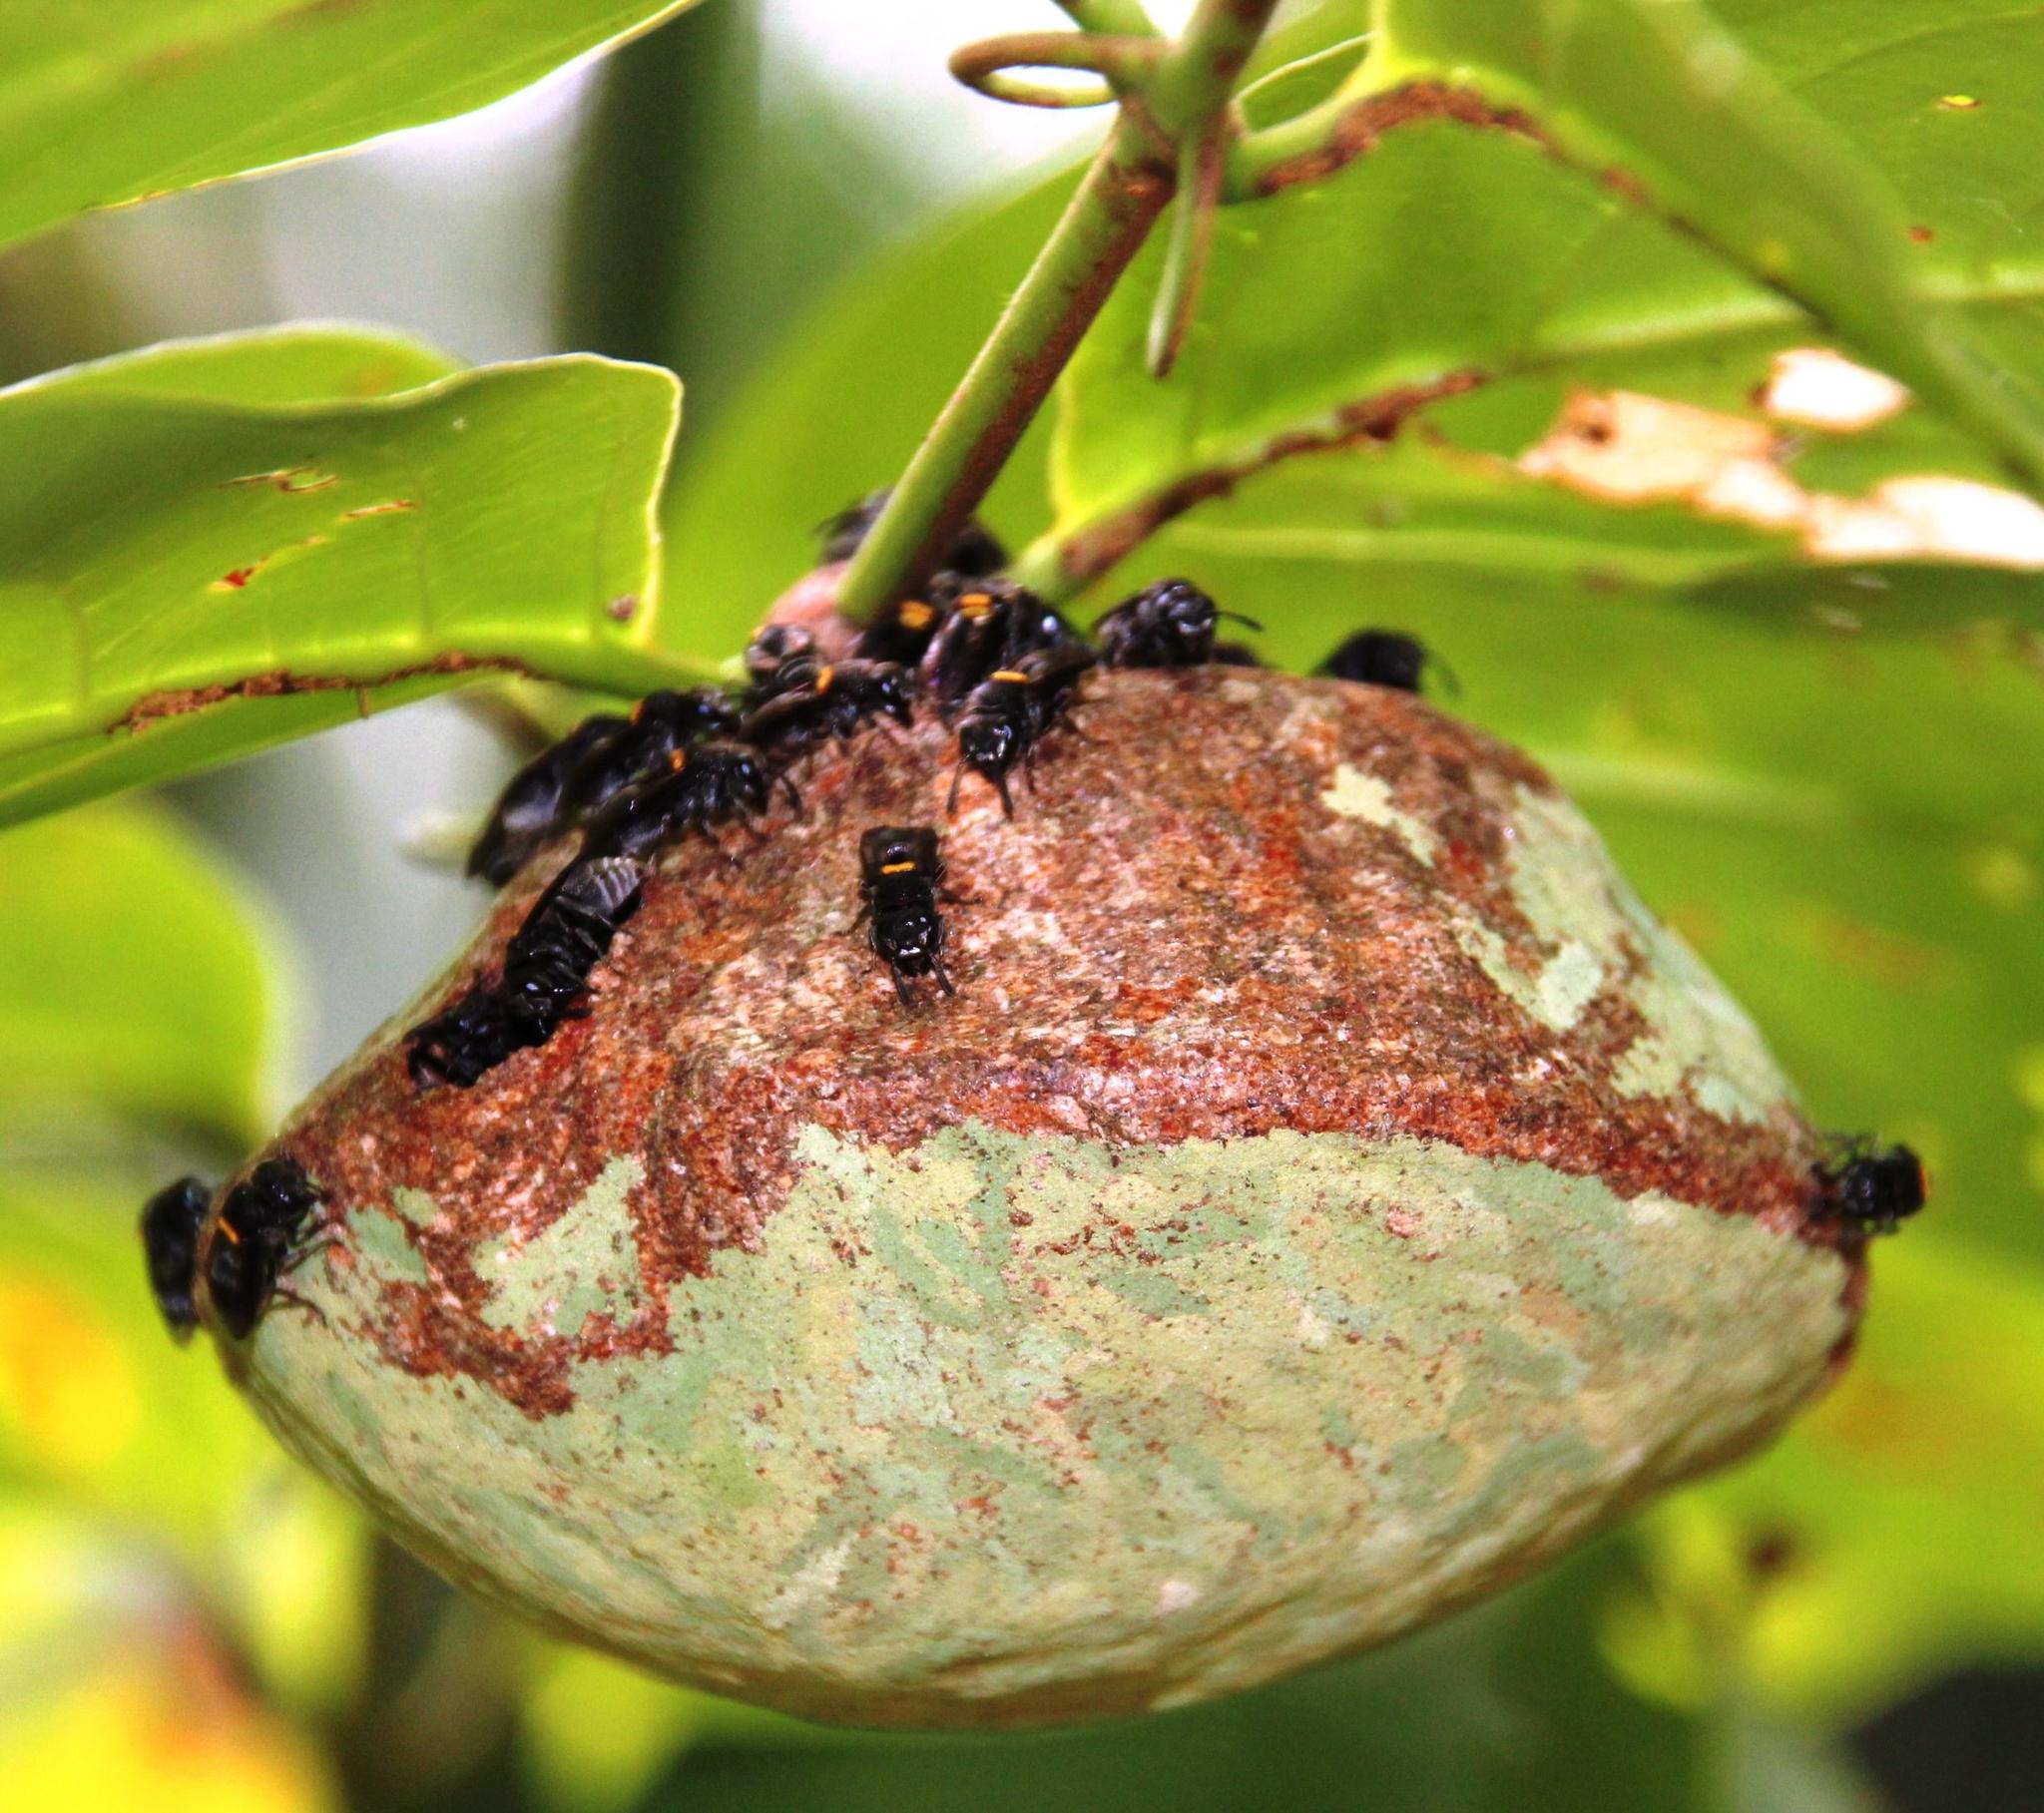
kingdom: Animalia
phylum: Arthropoda
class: Insecta
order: Hymenoptera
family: Vespidae
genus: Brachygastra
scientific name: Brachygastra scutellaris
